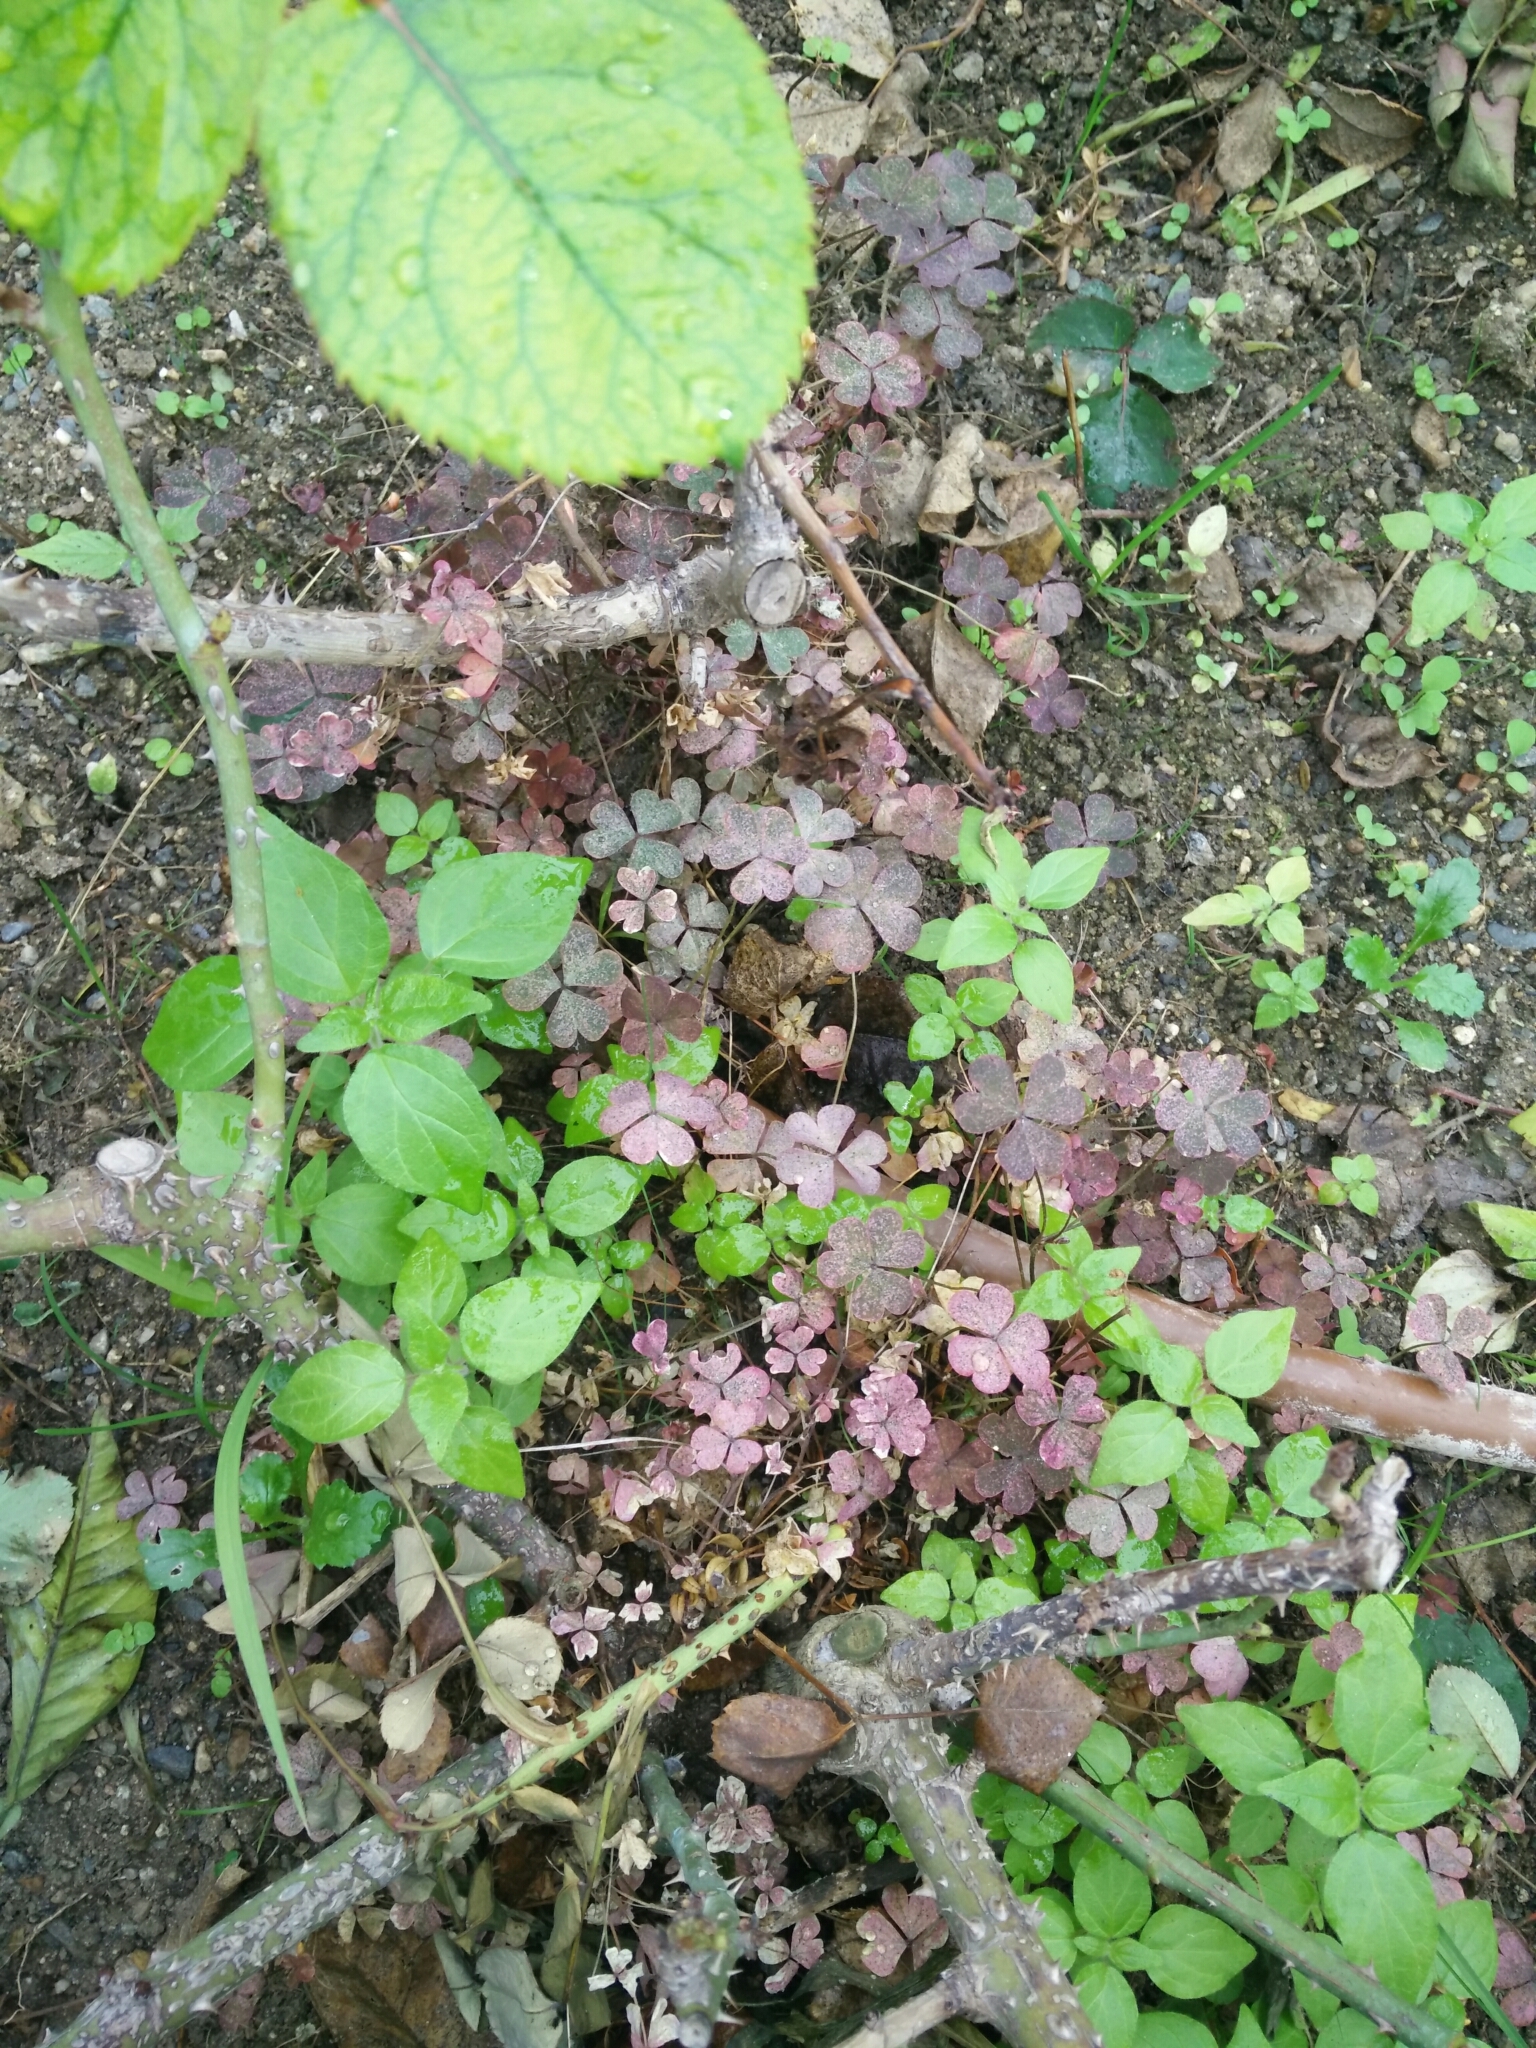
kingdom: Plantae
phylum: Tracheophyta
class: Magnoliopsida
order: Oxalidales
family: Oxalidaceae
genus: Oxalis
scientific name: Oxalis corniculata
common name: Procumbent yellow-sorrel
